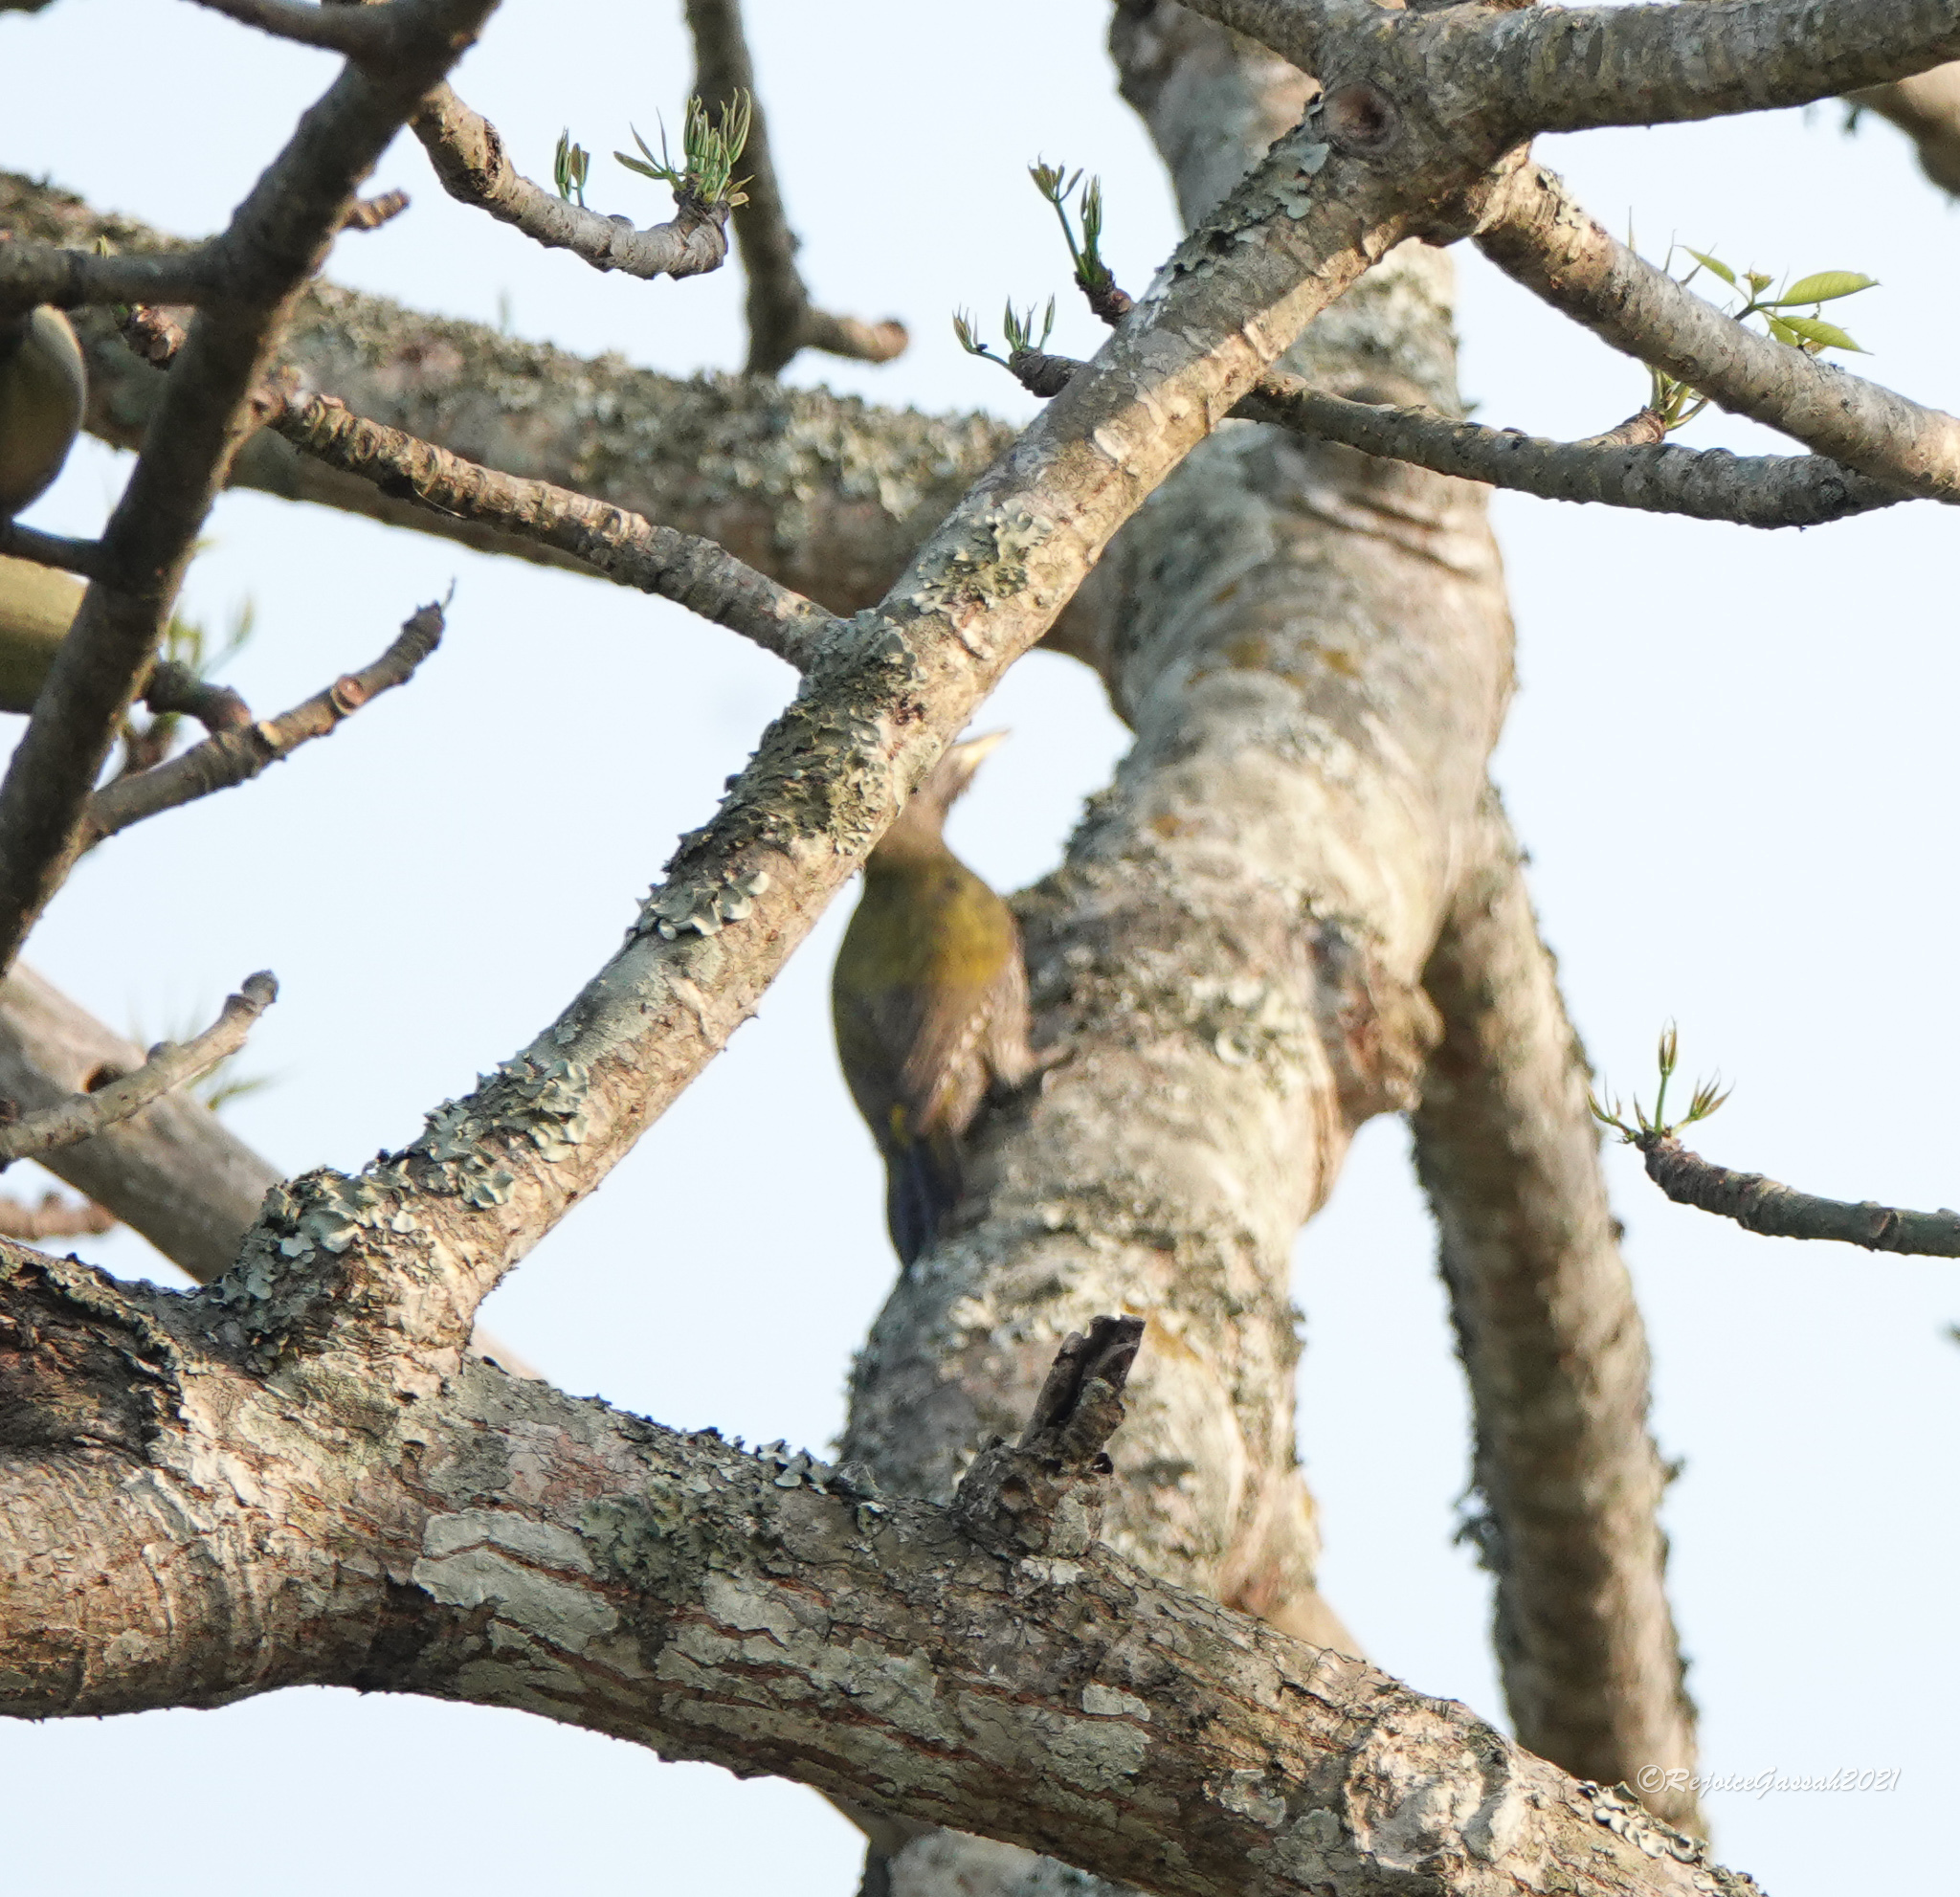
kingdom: Animalia
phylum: Chordata
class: Aves
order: Piciformes
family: Picidae
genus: Picus
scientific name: Picus canus
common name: Grey-headed woodpecker
